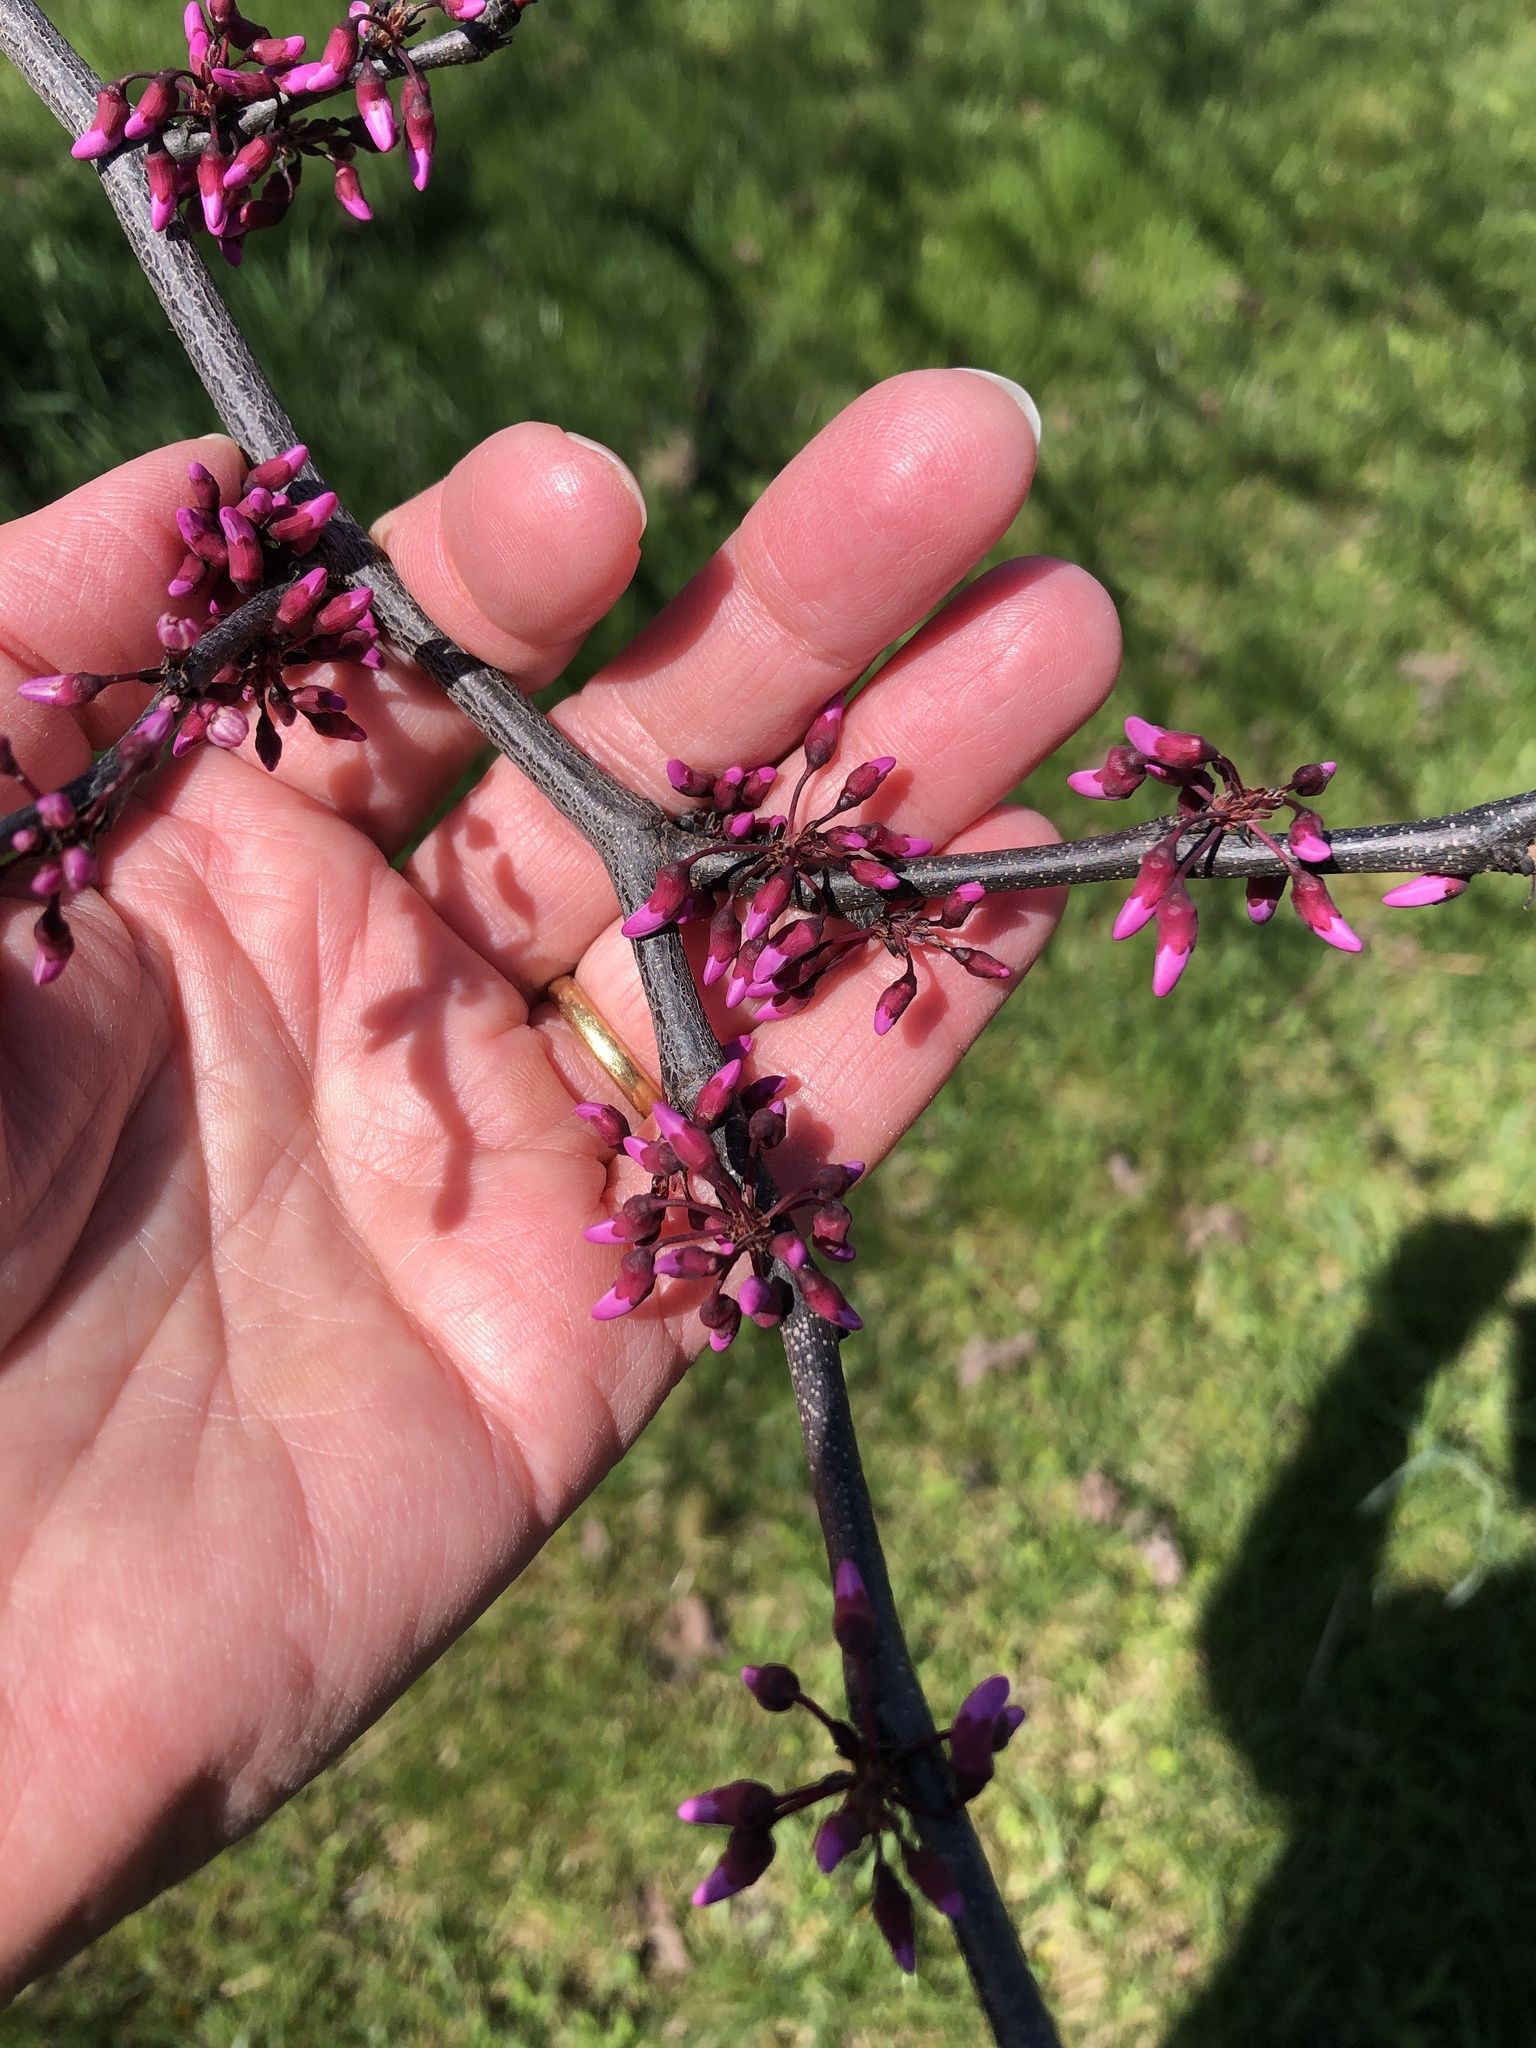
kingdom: Plantae
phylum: Tracheophyta
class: Magnoliopsida
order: Fabales
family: Fabaceae
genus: Cercis
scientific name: Cercis canadensis
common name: Eastern redbud
